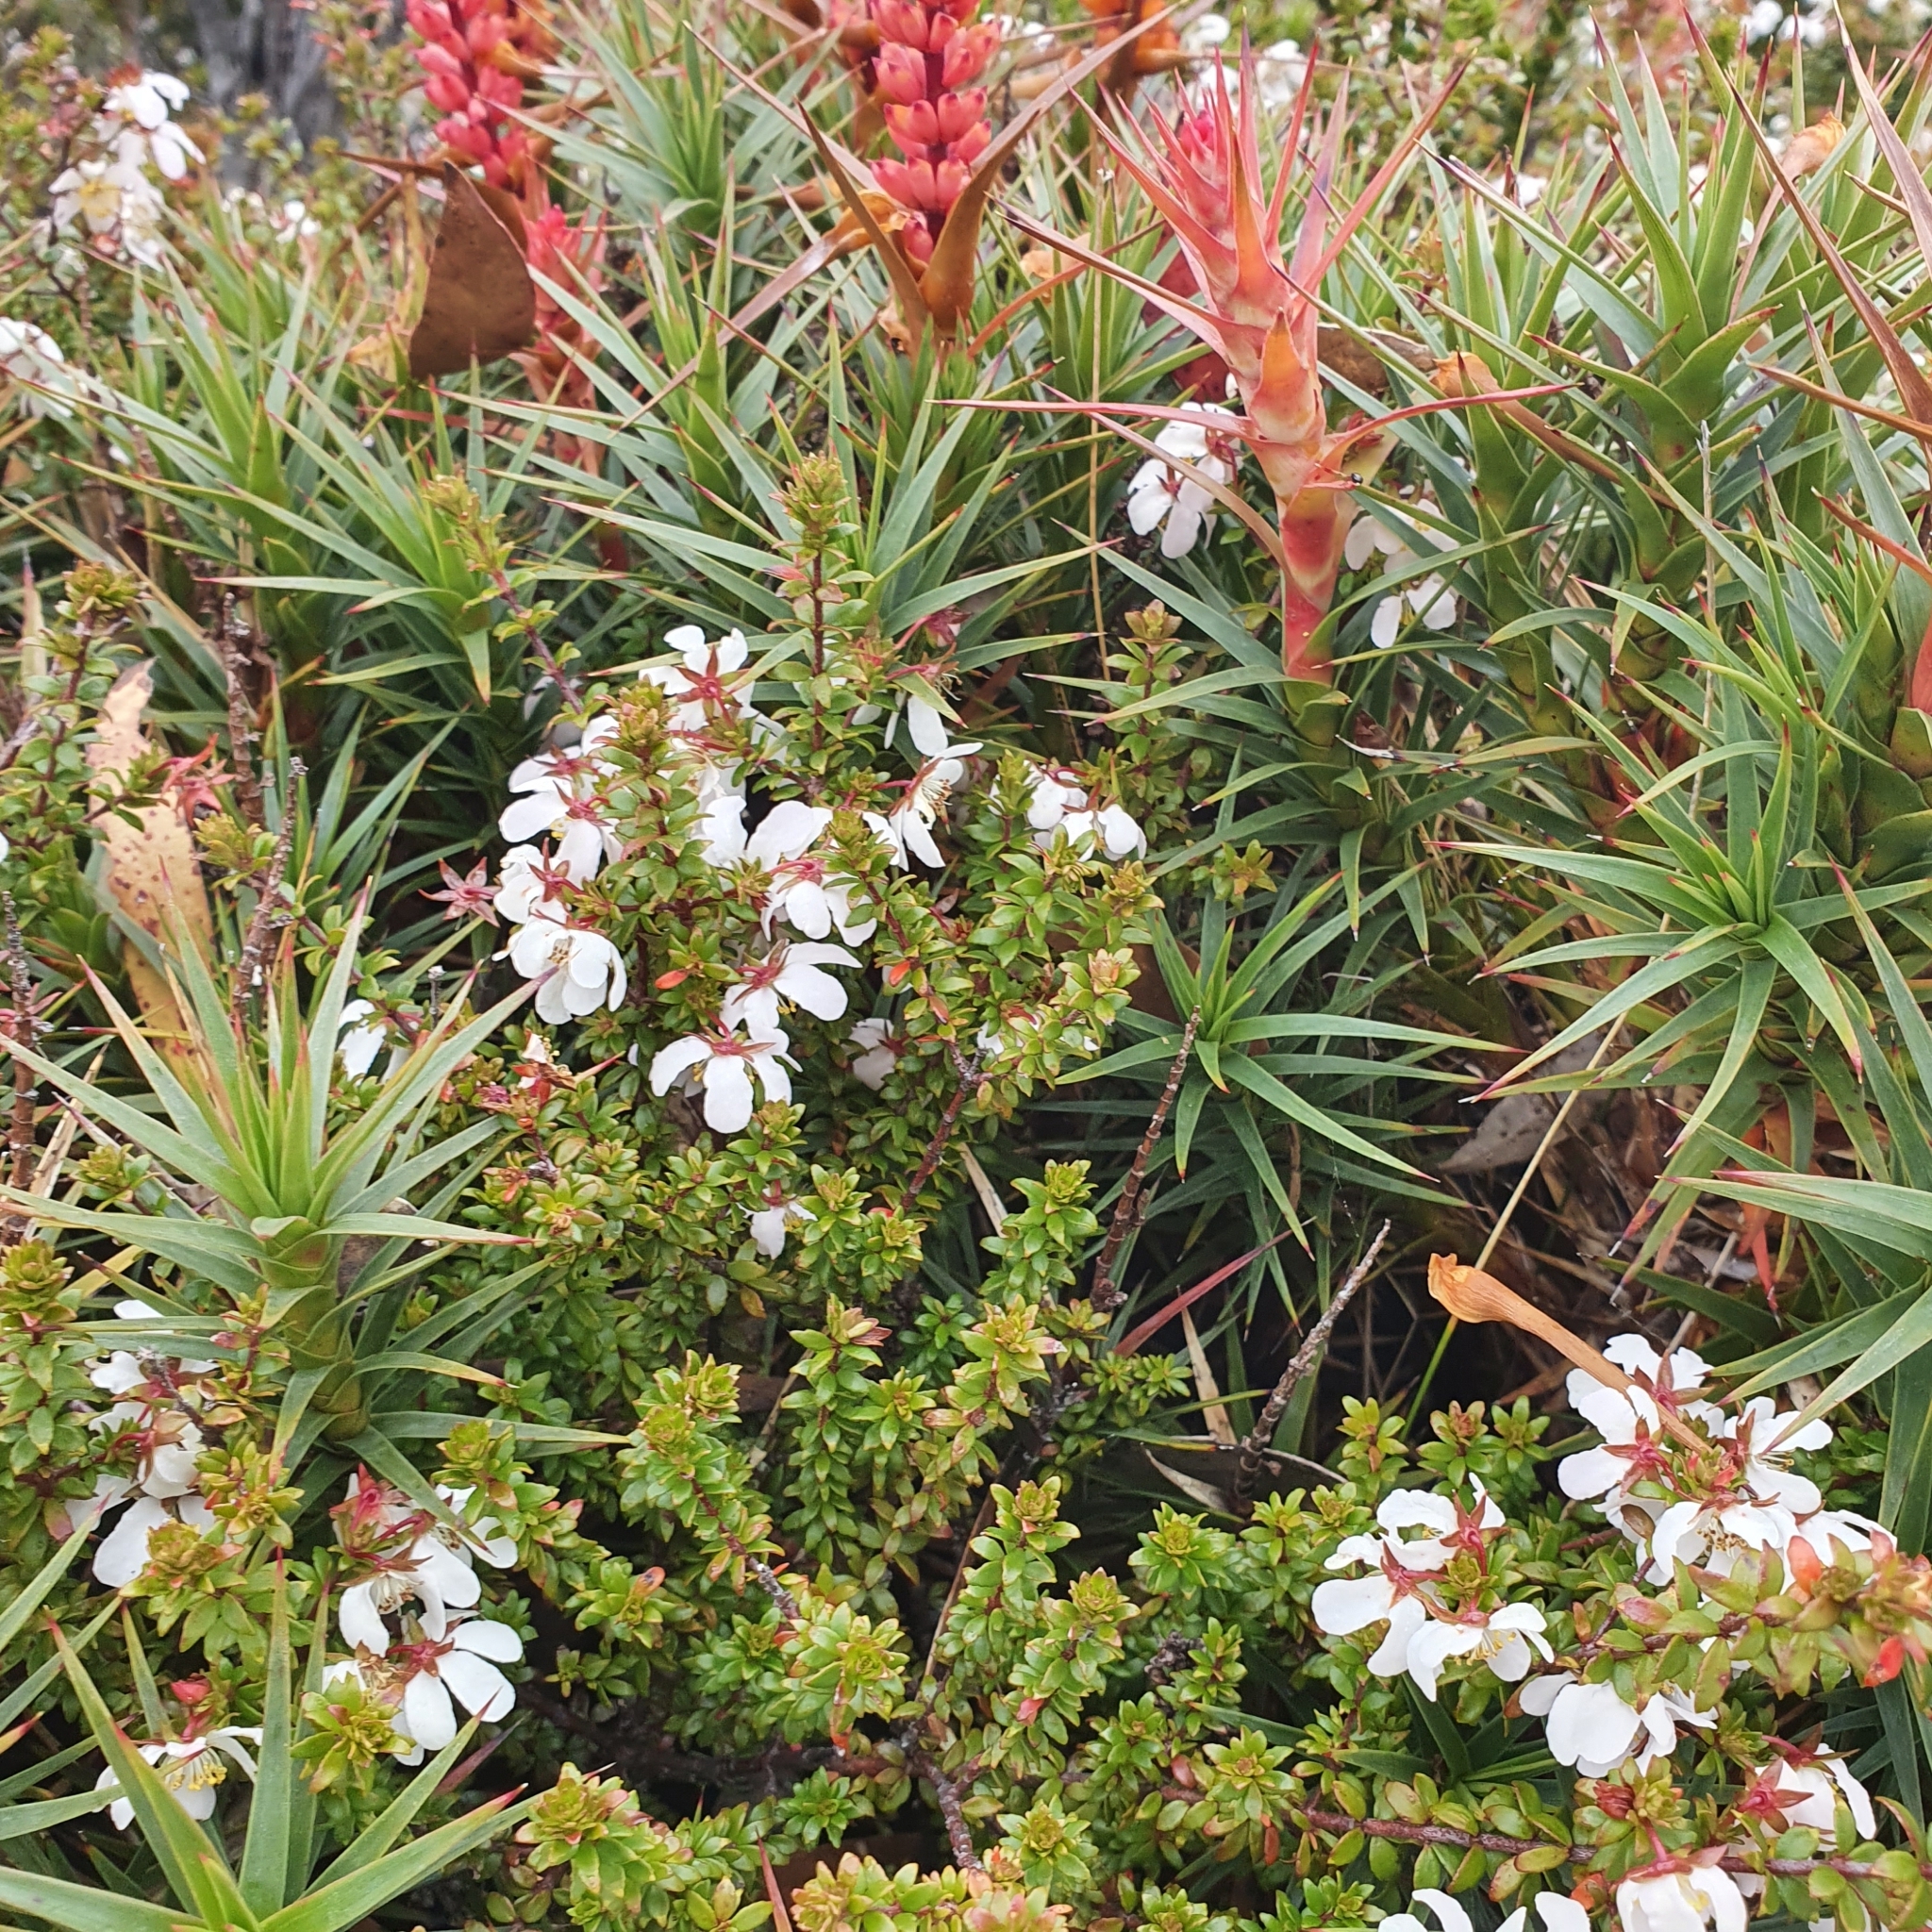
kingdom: Plantae
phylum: Tracheophyta
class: Magnoliopsida
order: Oxalidales
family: Cunoniaceae
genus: Bauera
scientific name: Bauera rubioides
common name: River-rose
